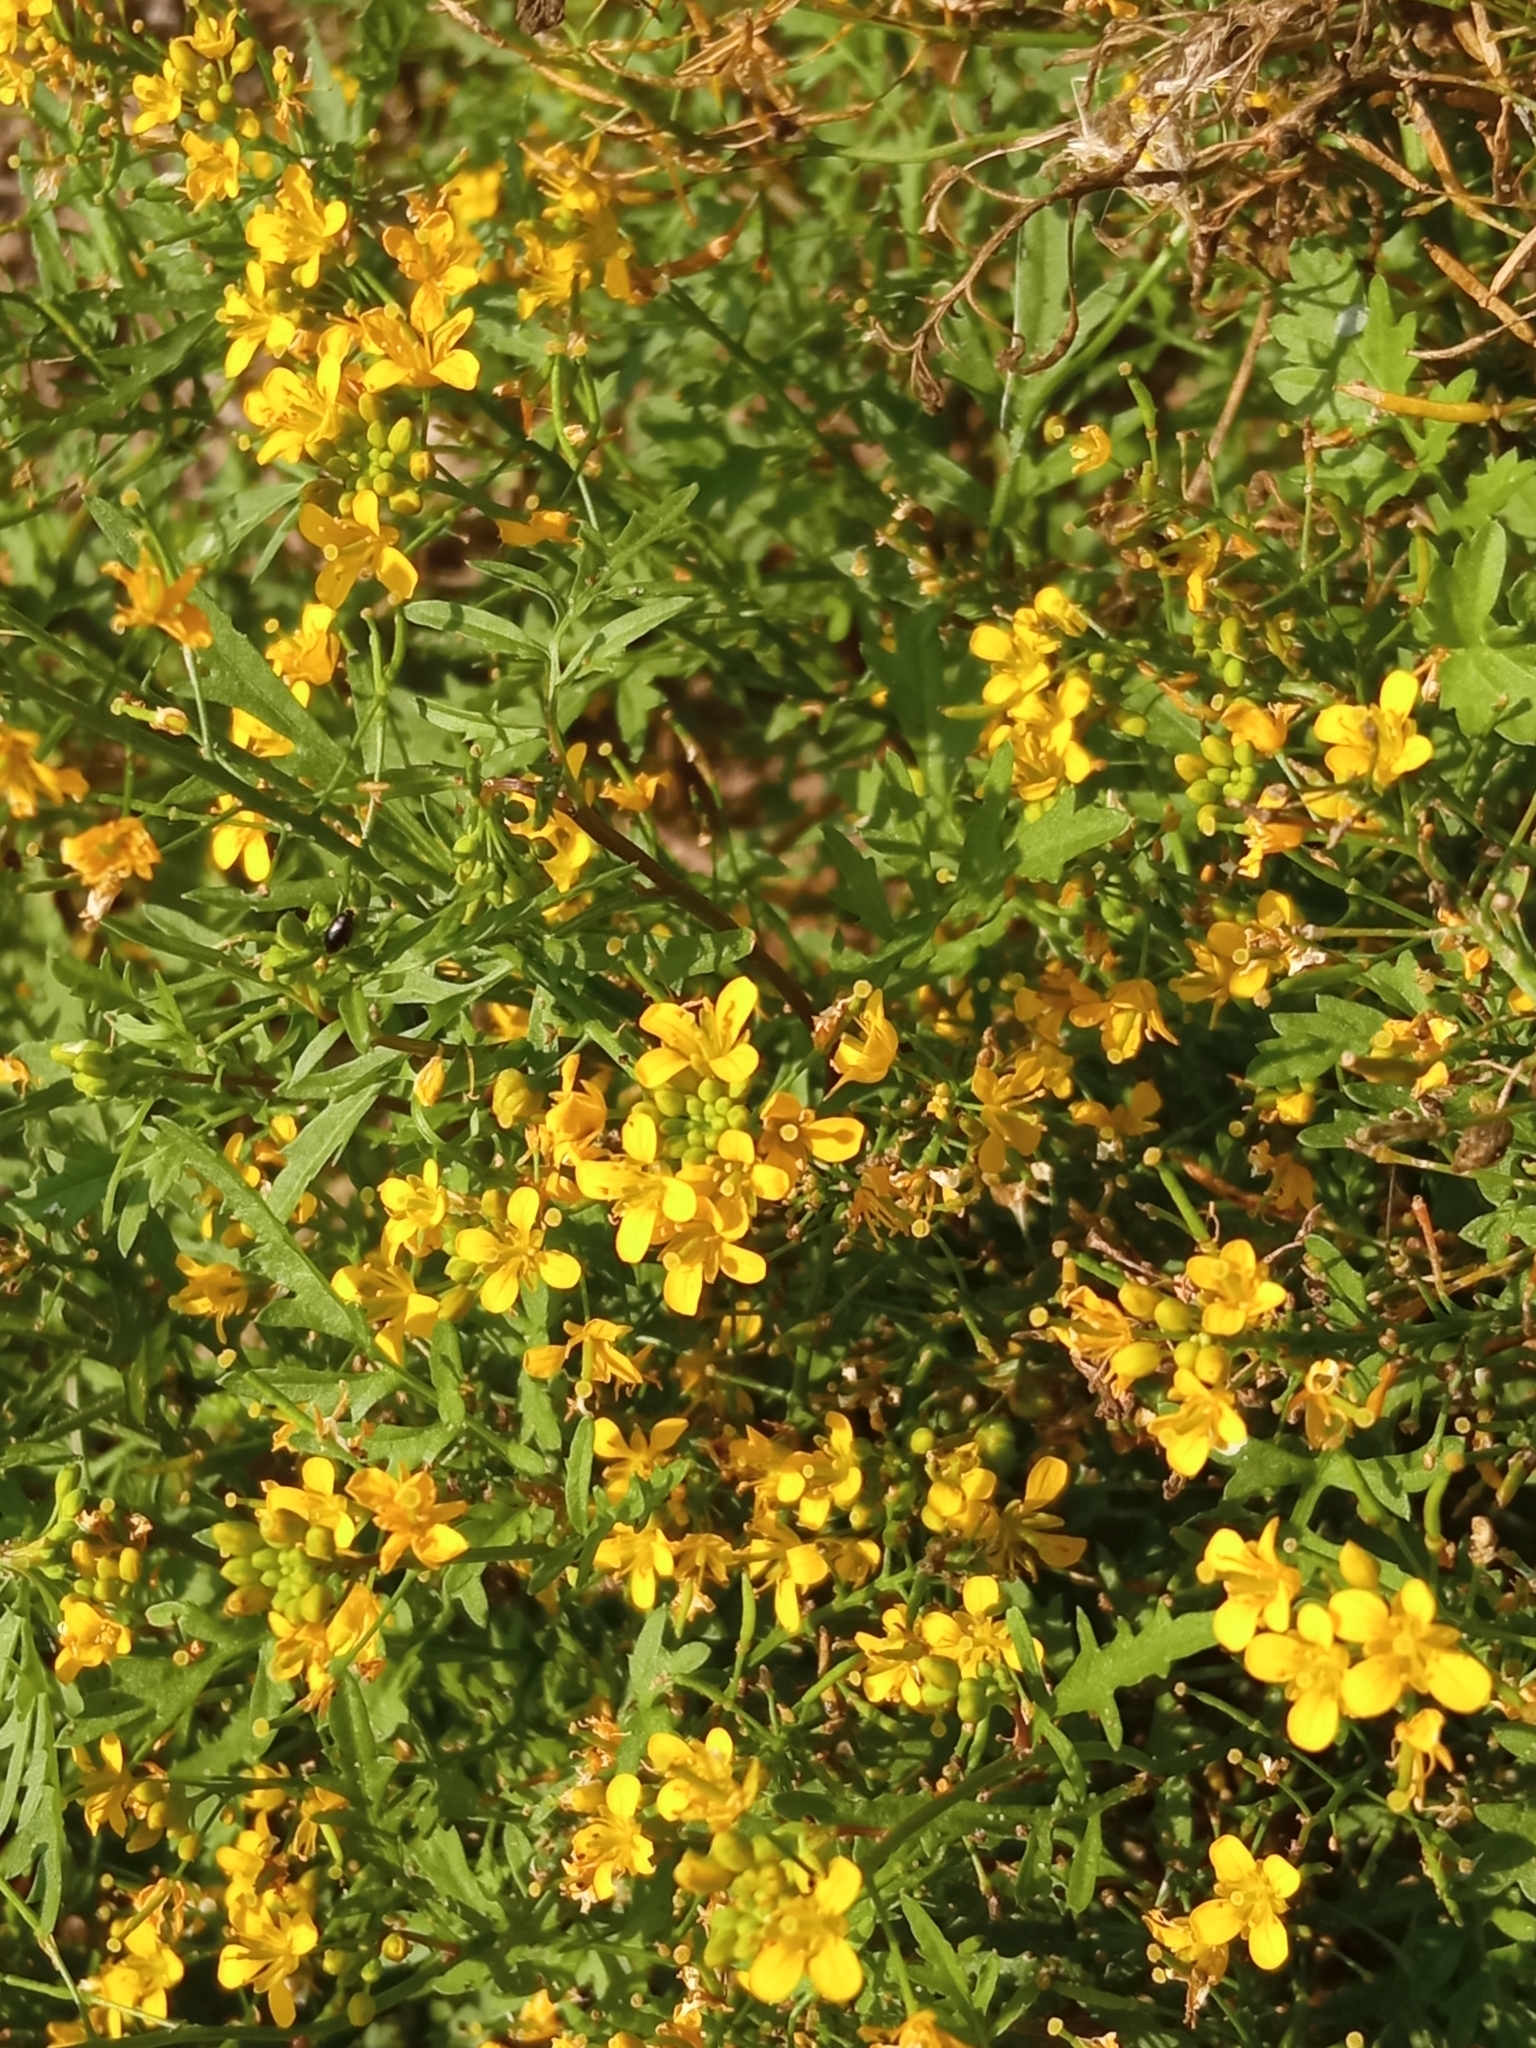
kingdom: Plantae
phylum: Tracheophyta
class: Magnoliopsida
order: Brassicales
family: Brassicaceae
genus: Rorippa
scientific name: Rorippa sylvestris
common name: Creeping yellowcress
